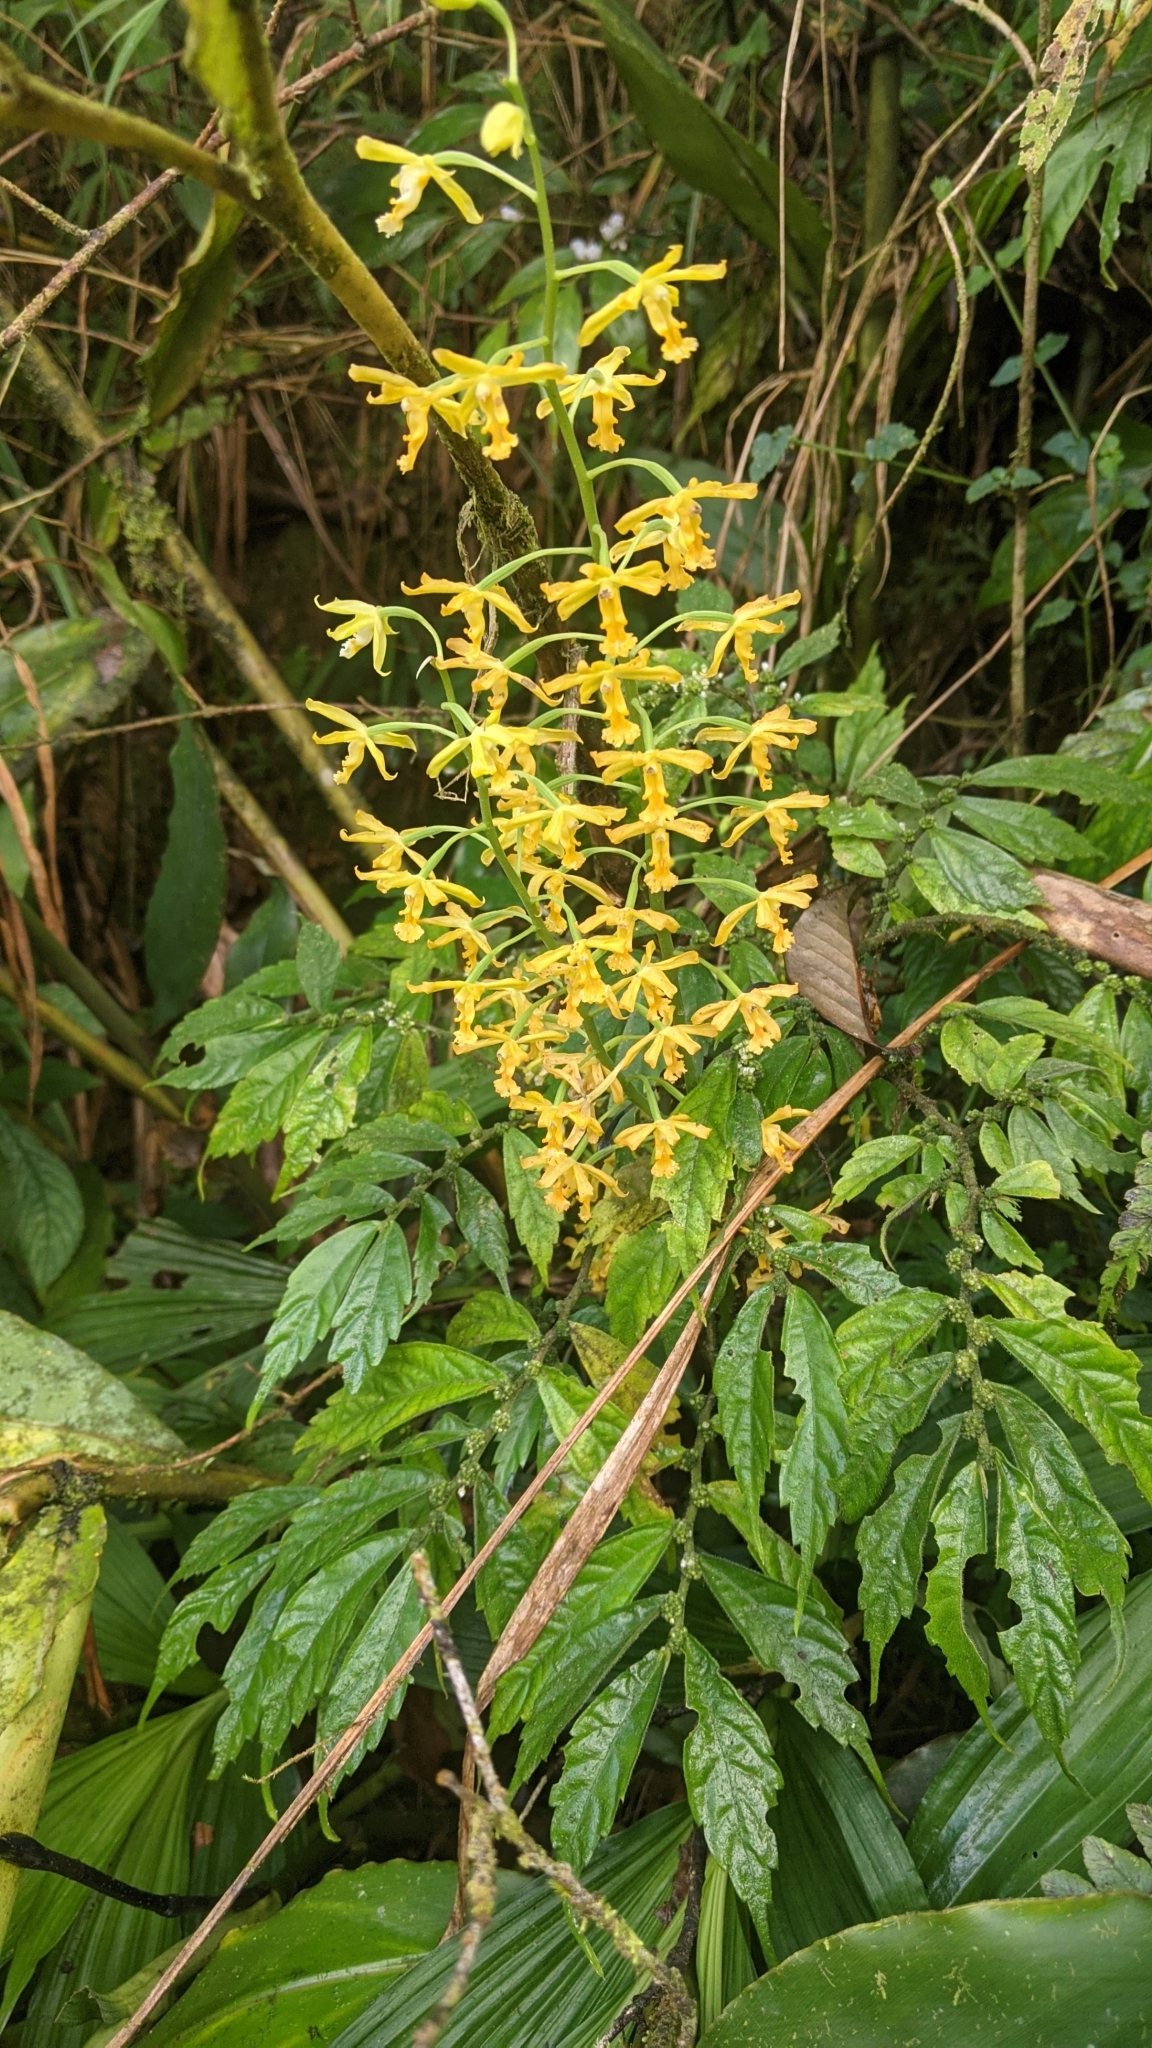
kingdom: Plantae
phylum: Tracheophyta
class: Liliopsida
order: Asparagales
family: Orchidaceae
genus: Calanthe
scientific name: Calanthe obcordata
